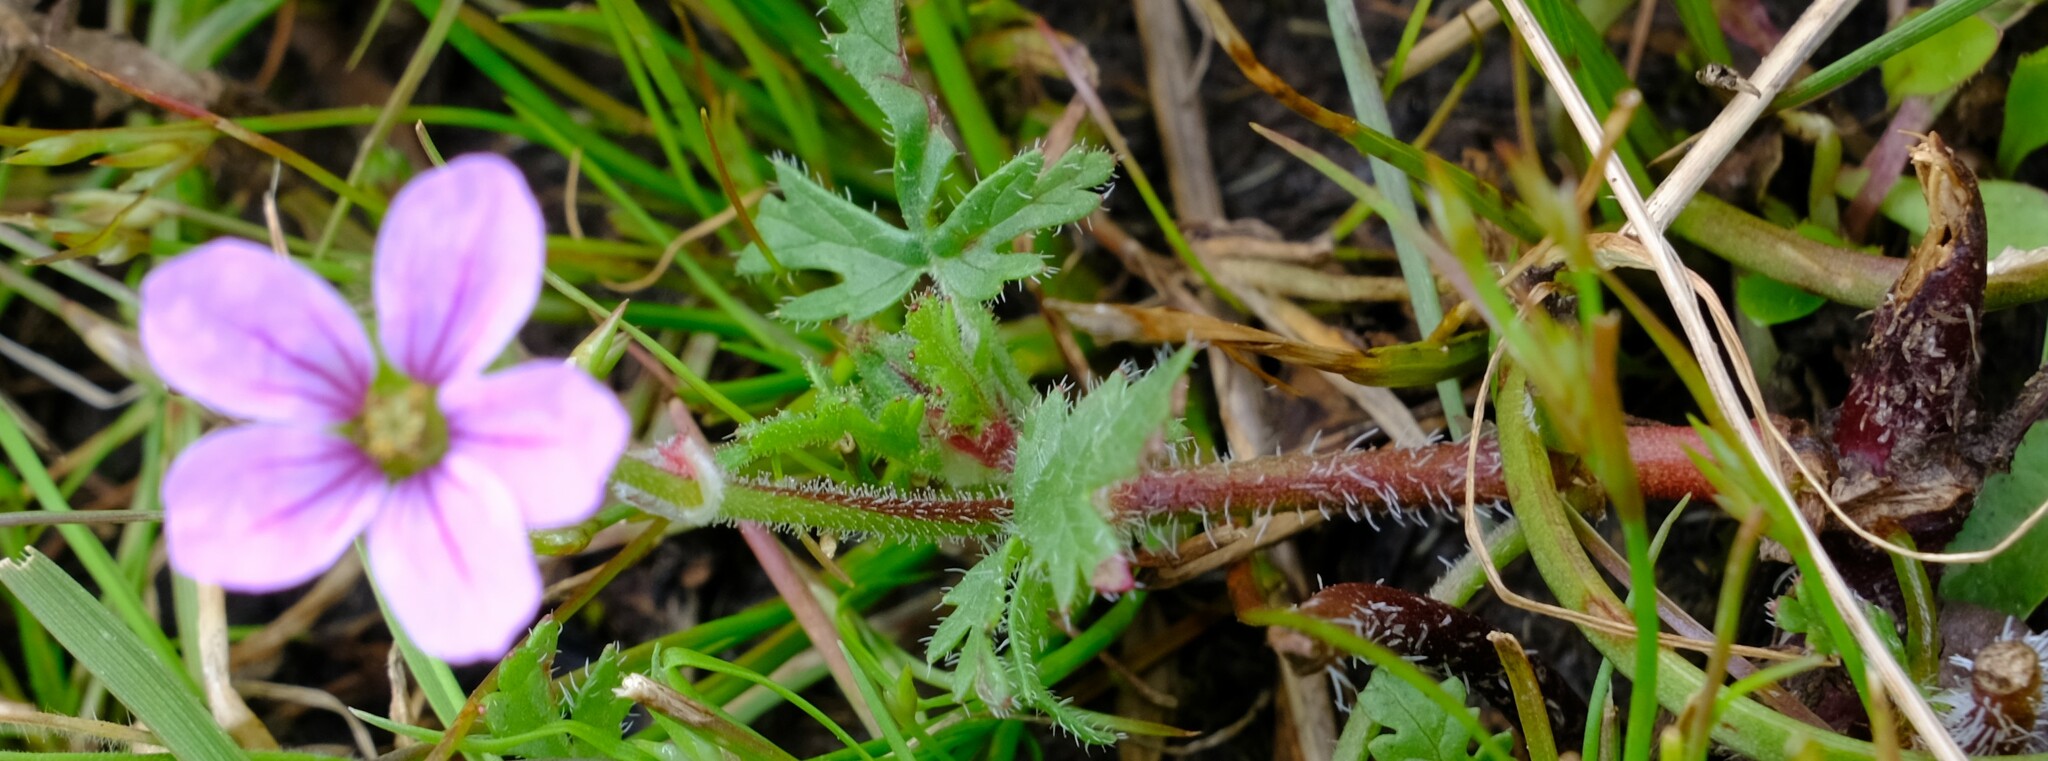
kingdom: Plantae
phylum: Tracheophyta
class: Magnoliopsida
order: Geraniales
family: Geraniaceae
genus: Erodium
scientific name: Erodium botrys
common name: Mediterranean stork's-bill
